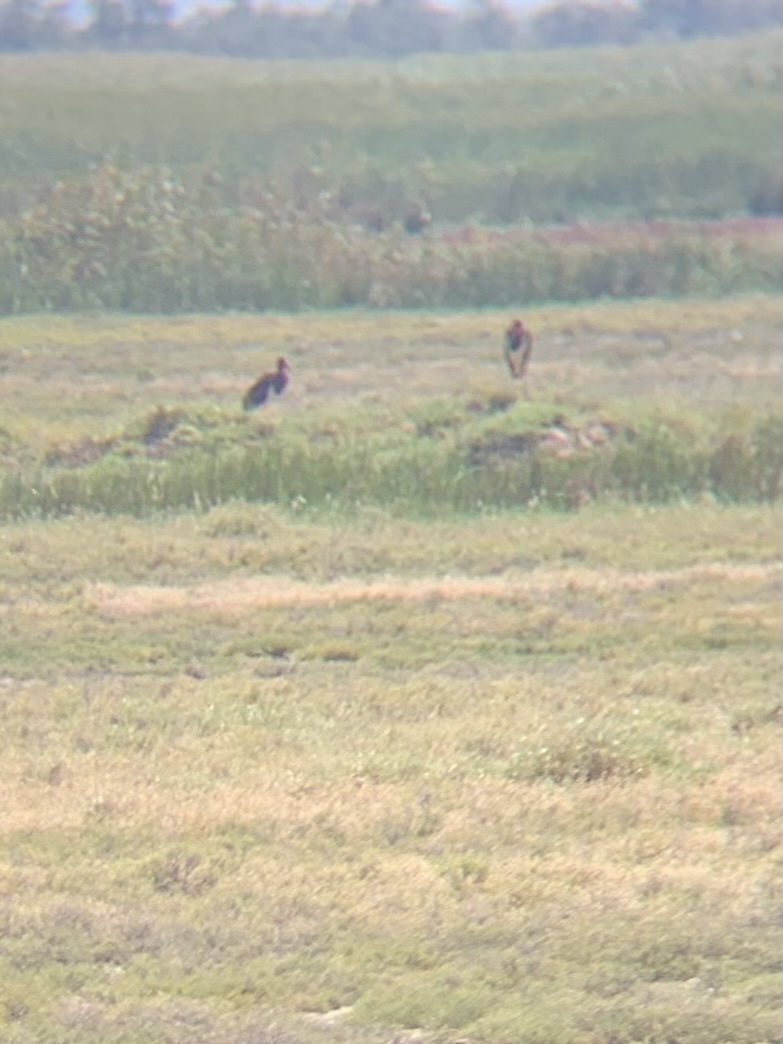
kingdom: Animalia
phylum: Chordata
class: Aves
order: Ciconiiformes
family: Ciconiidae
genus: Ciconia
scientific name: Ciconia nigra
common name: Black stork
